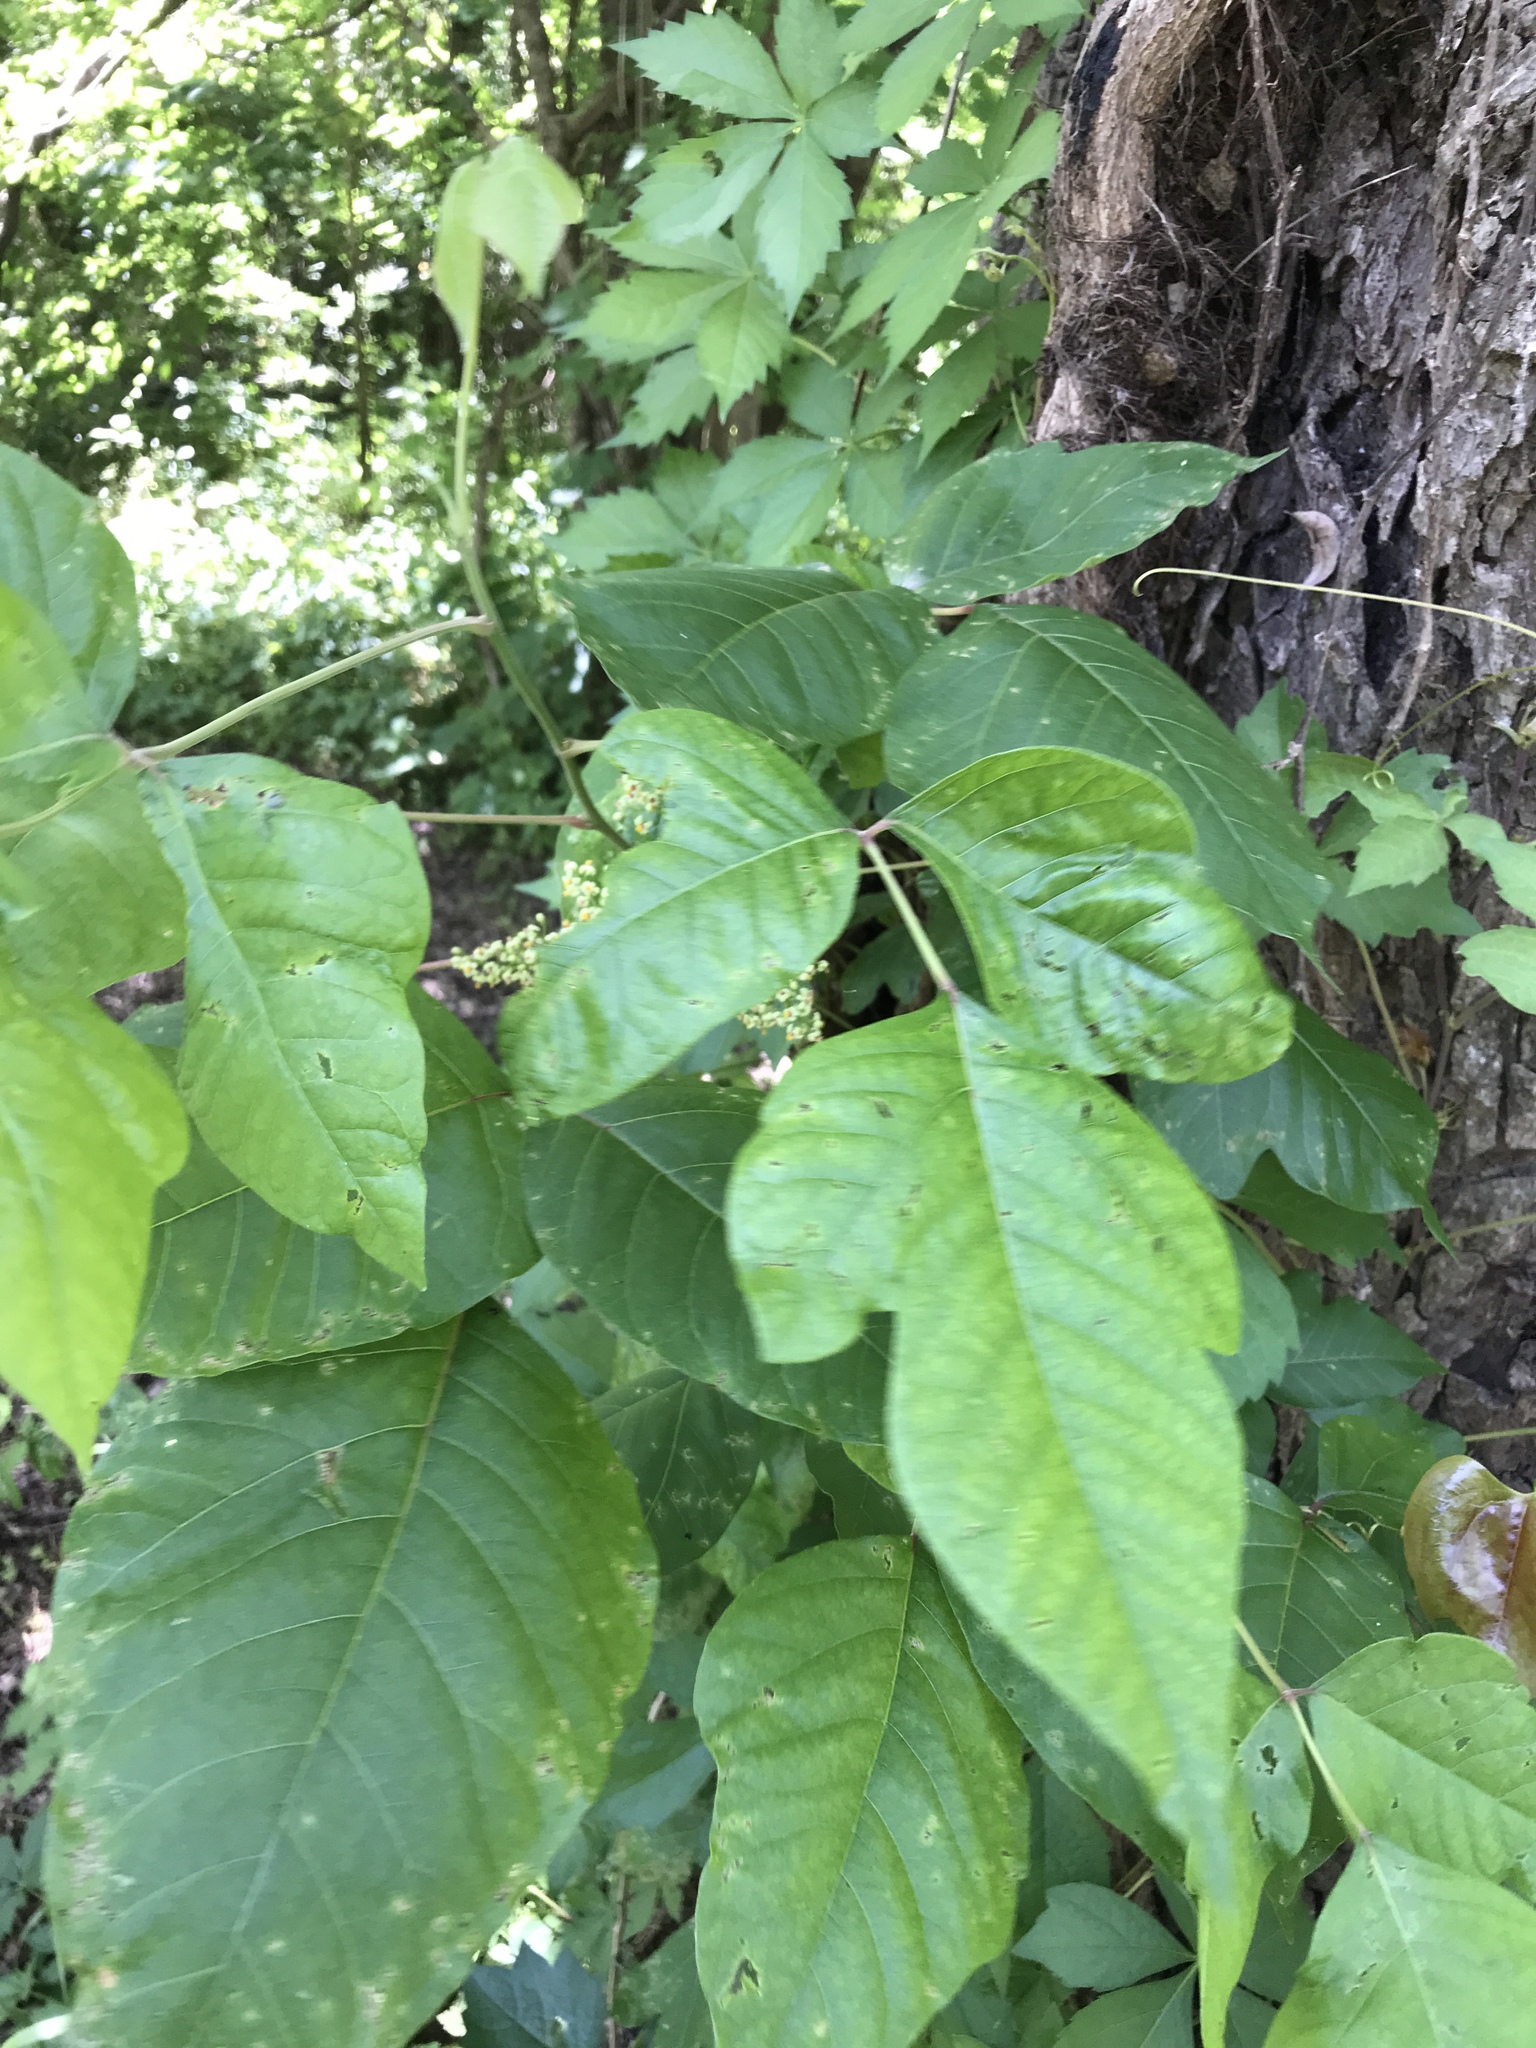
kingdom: Plantae
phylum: Tracheophyta
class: Magnoliopsida
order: Sapindales
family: Anacardiaceae
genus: Toxicodendron
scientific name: Toxicodendron radicans
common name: Poison ivy
